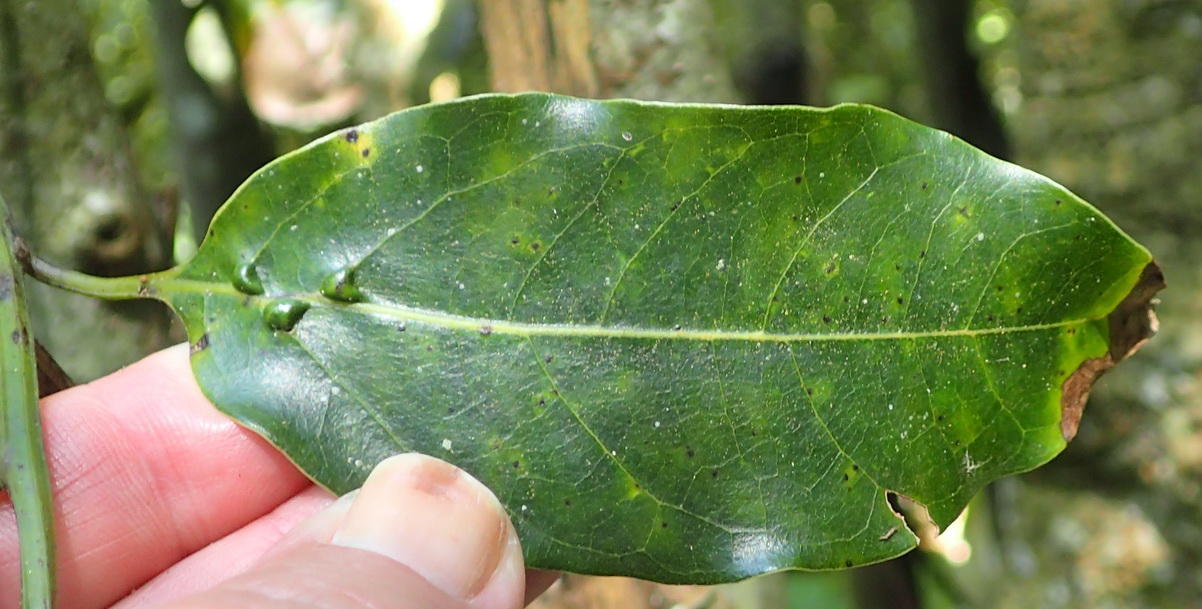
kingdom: Plantae
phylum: Tracheophyta
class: Magnoliopsida
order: Laurales
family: Lauraceae
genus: Ocotea
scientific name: Ocotea bullata
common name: Black stinkwood
